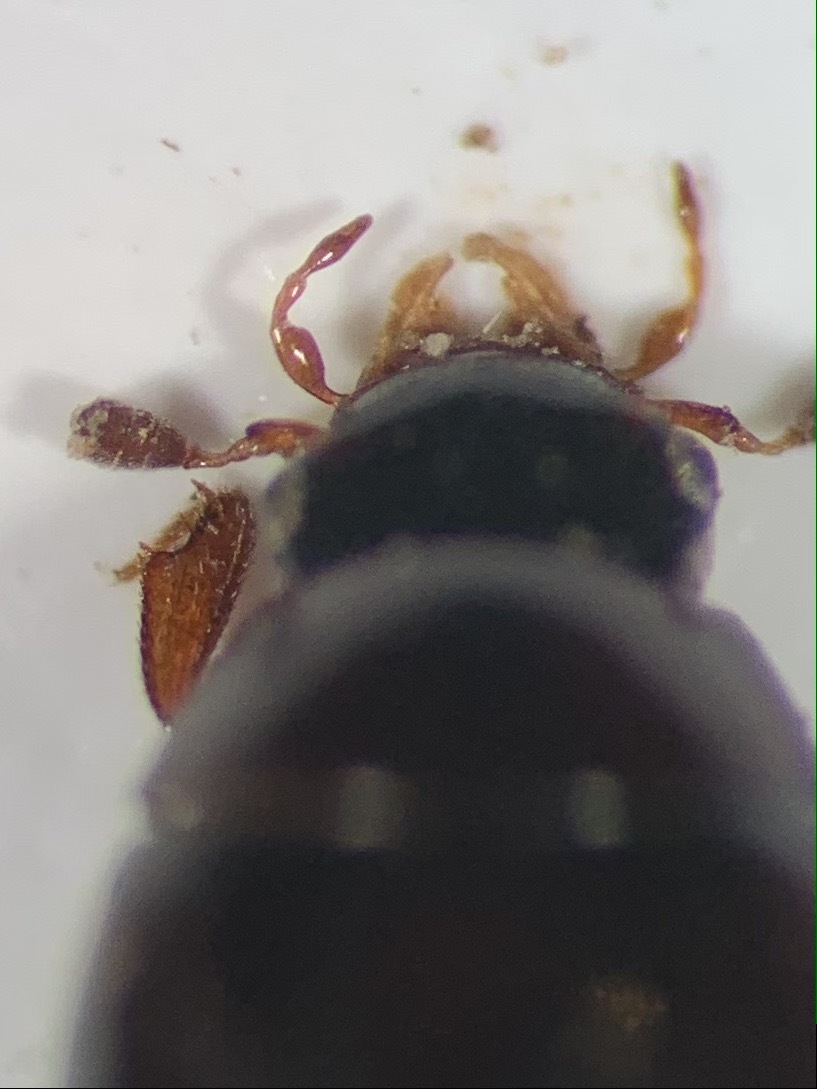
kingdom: Animalia
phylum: Arthropoda
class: Insecta
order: Coleoptera
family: Hydrophilidae
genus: Megasternum
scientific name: Megasternum concinnum
